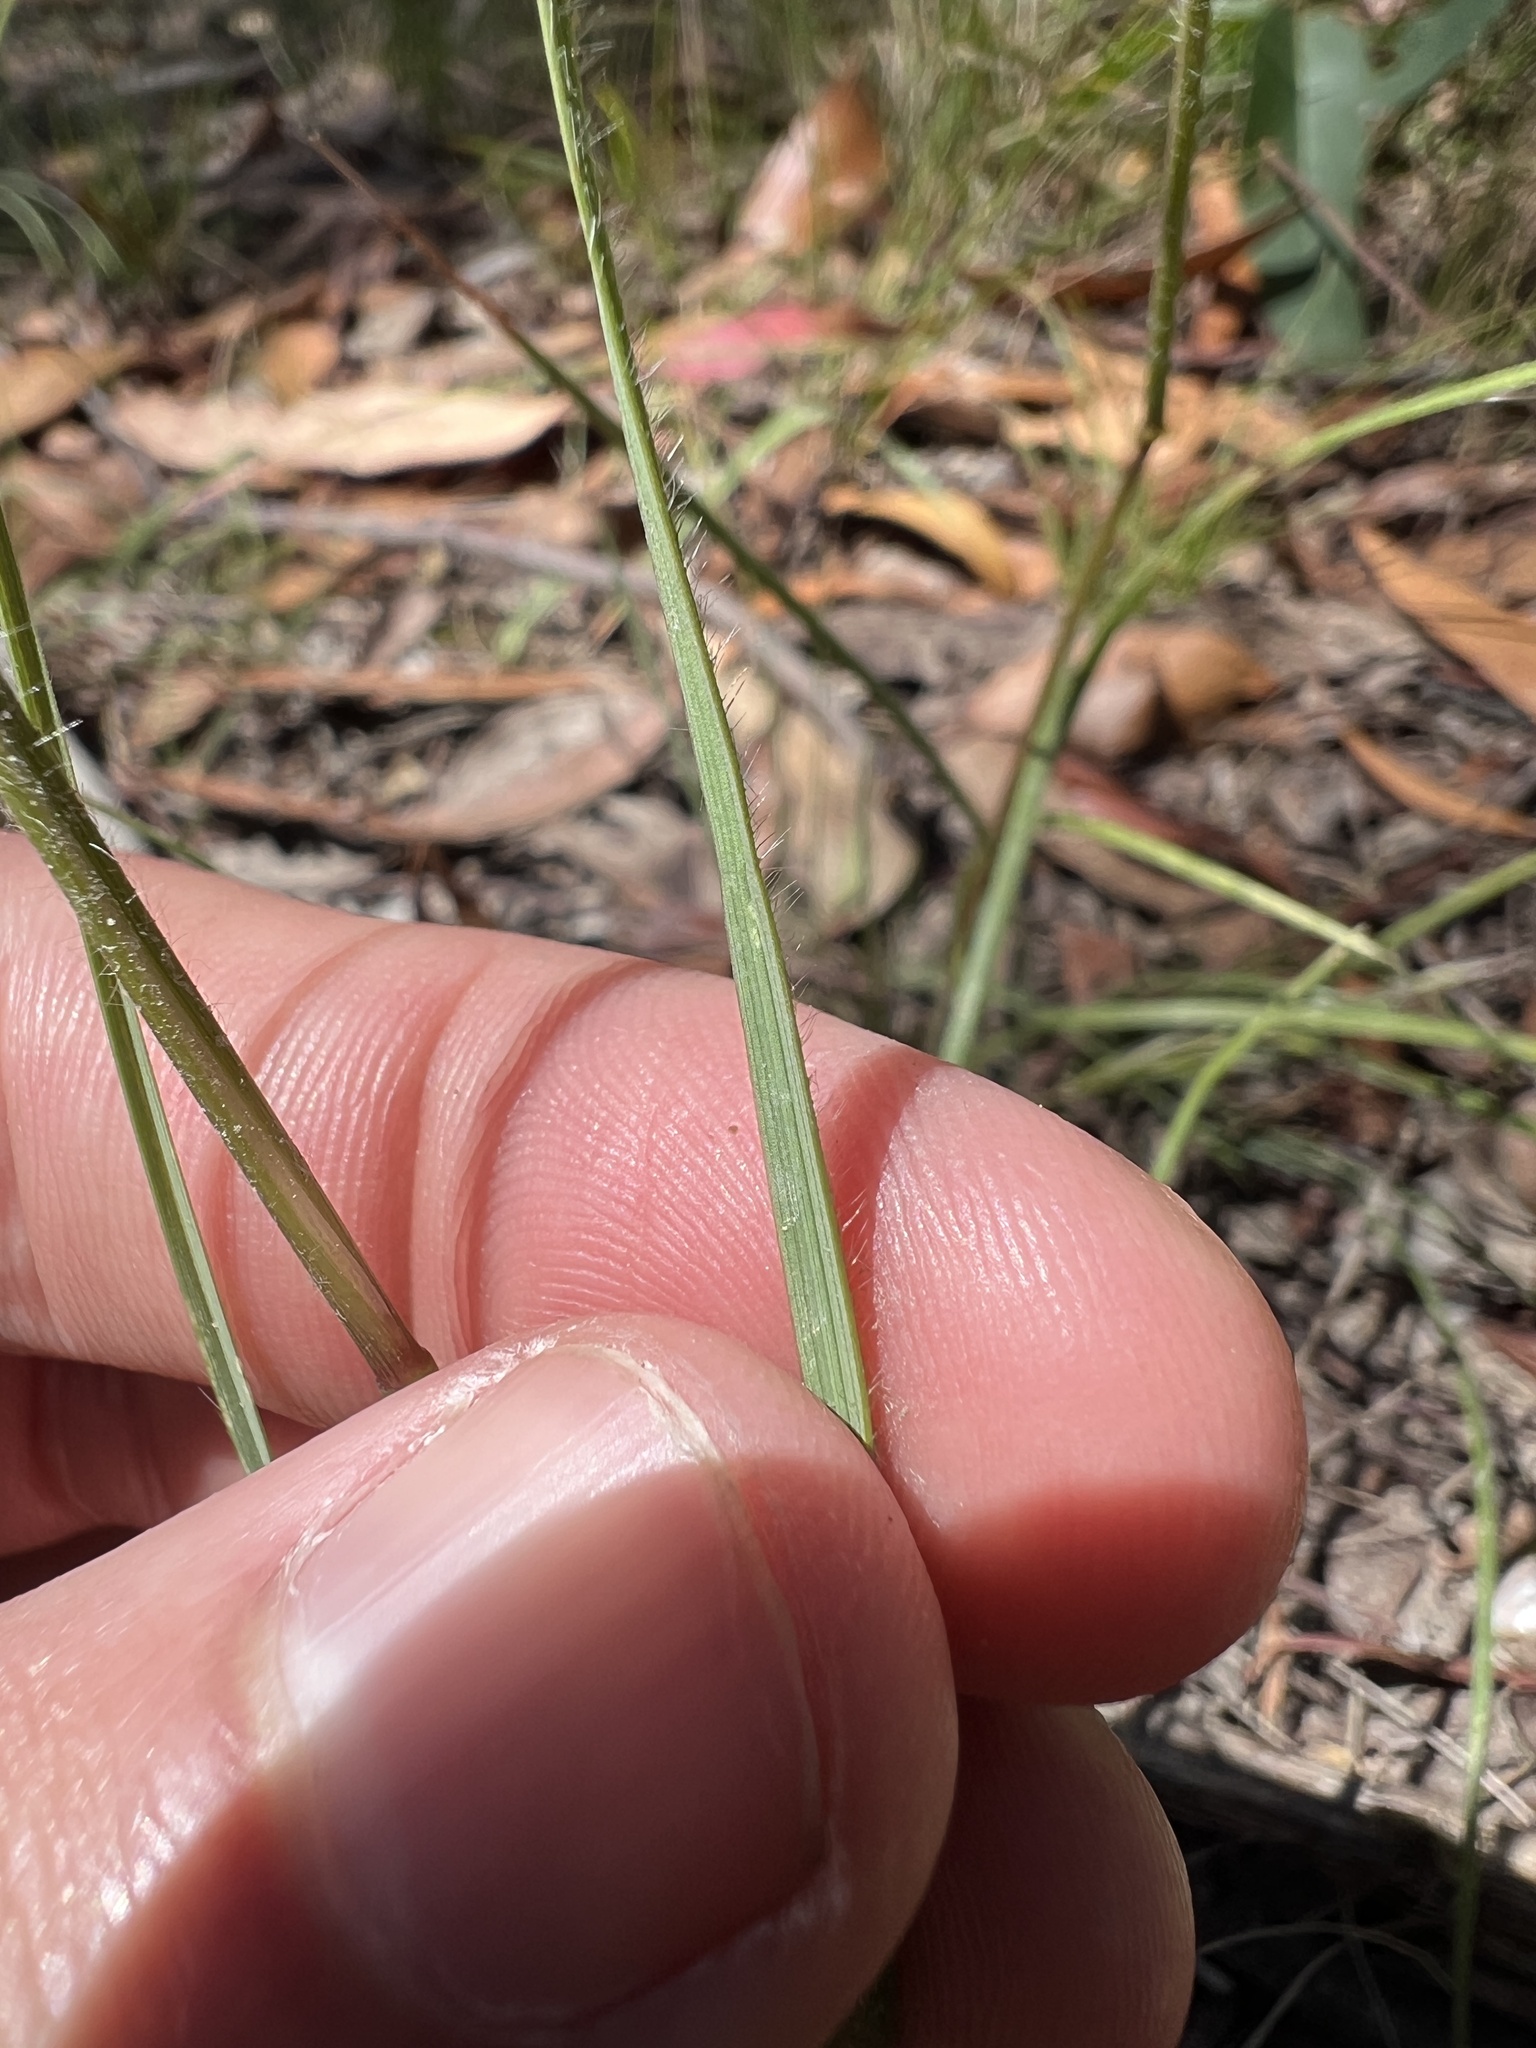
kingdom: Plantae
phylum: Tracheophyta
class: Liliopsida
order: Poales
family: Poaceae
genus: Rytidosperma
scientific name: Rytidosperma geniculatum
